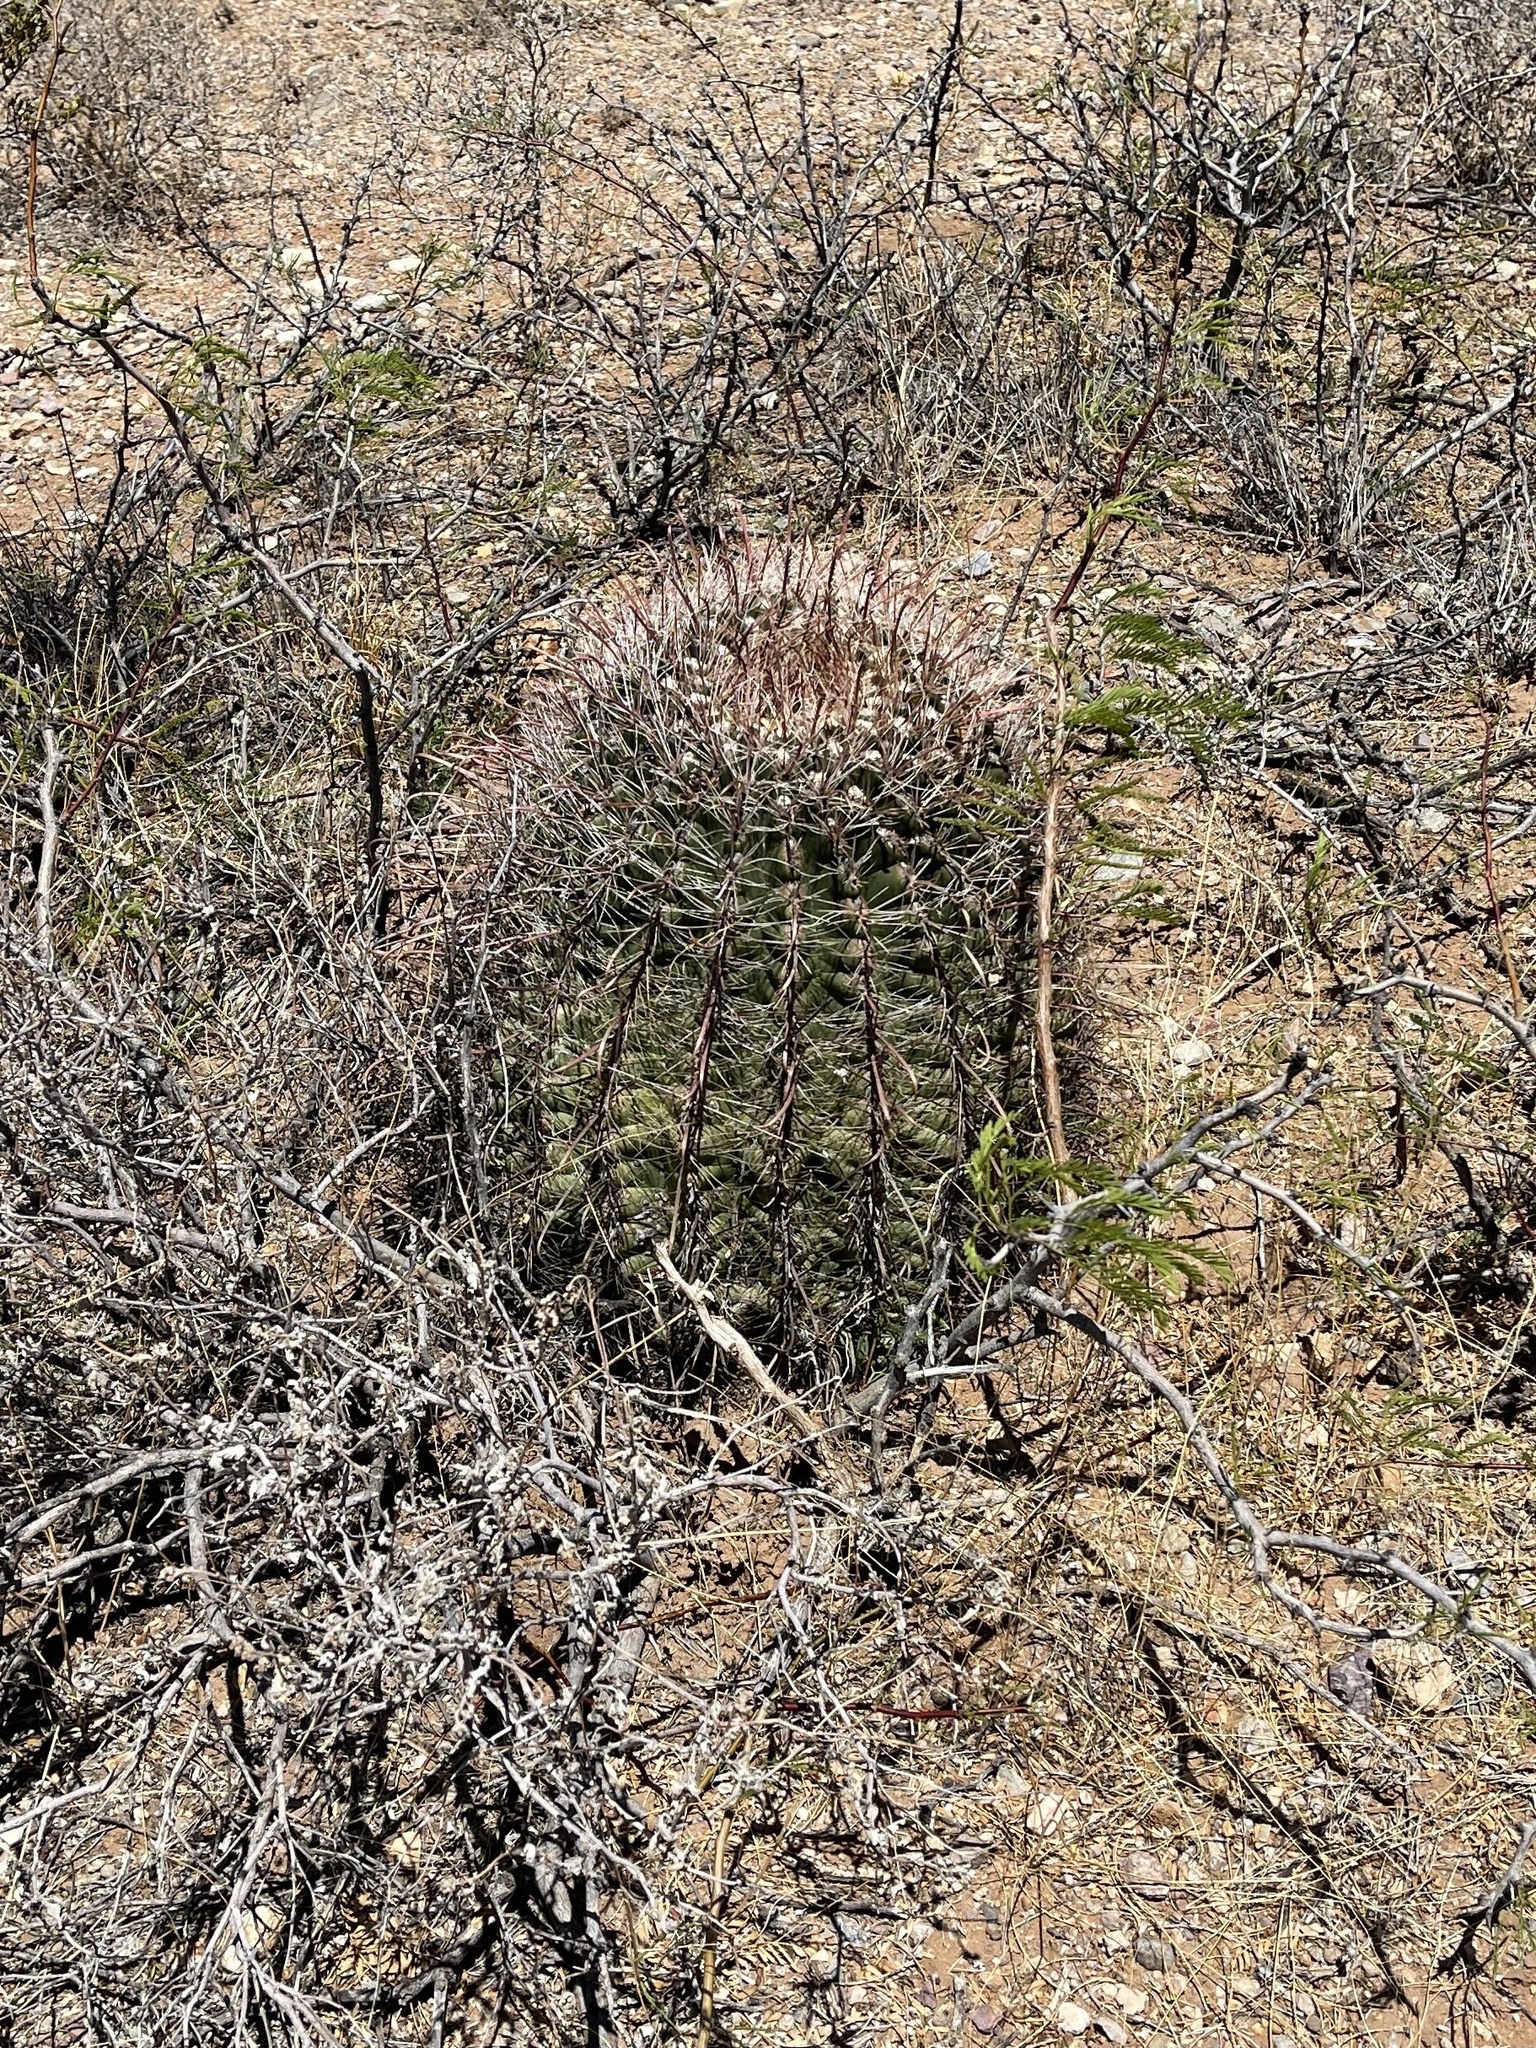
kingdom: Plantae
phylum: Tracheophyta
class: Magnoliopsida
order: Caryophyllales
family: Cactaceae
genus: Ferocactus
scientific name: Ferocactus wislizeni
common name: Candy barrel cactus
